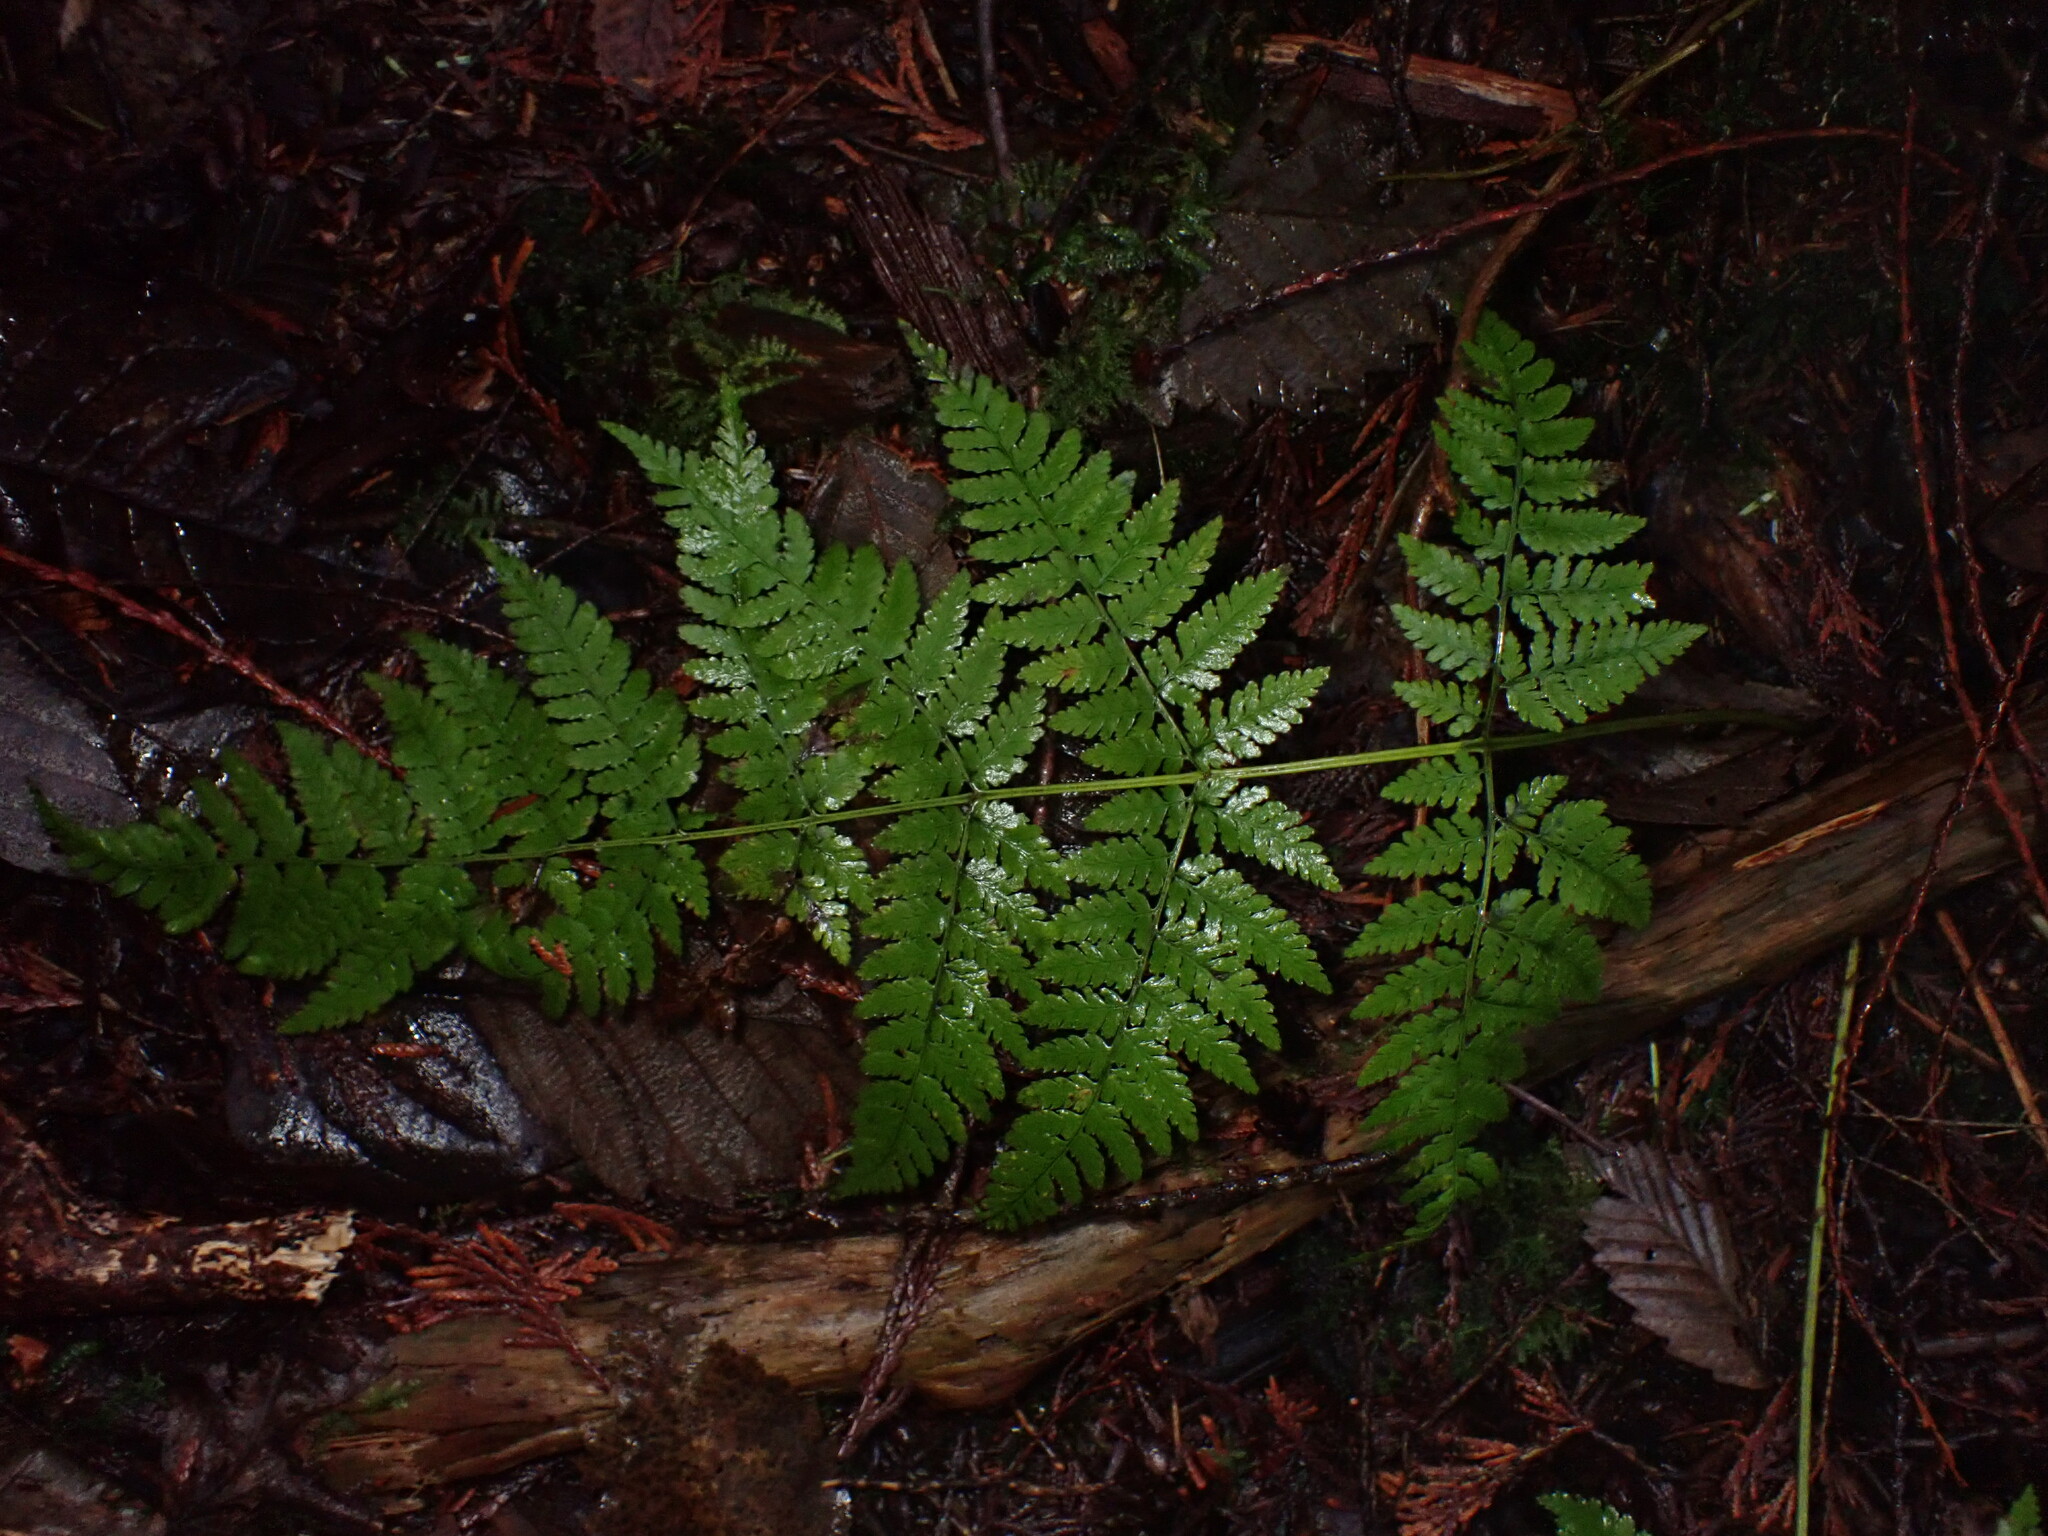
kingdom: Plantae
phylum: Tracheophyta
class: Polypodiopsida
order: Polypodiales
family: Dryopteridaceae
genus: Dryopteris
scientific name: Dryopteris expansa
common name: Northern buckler fern
